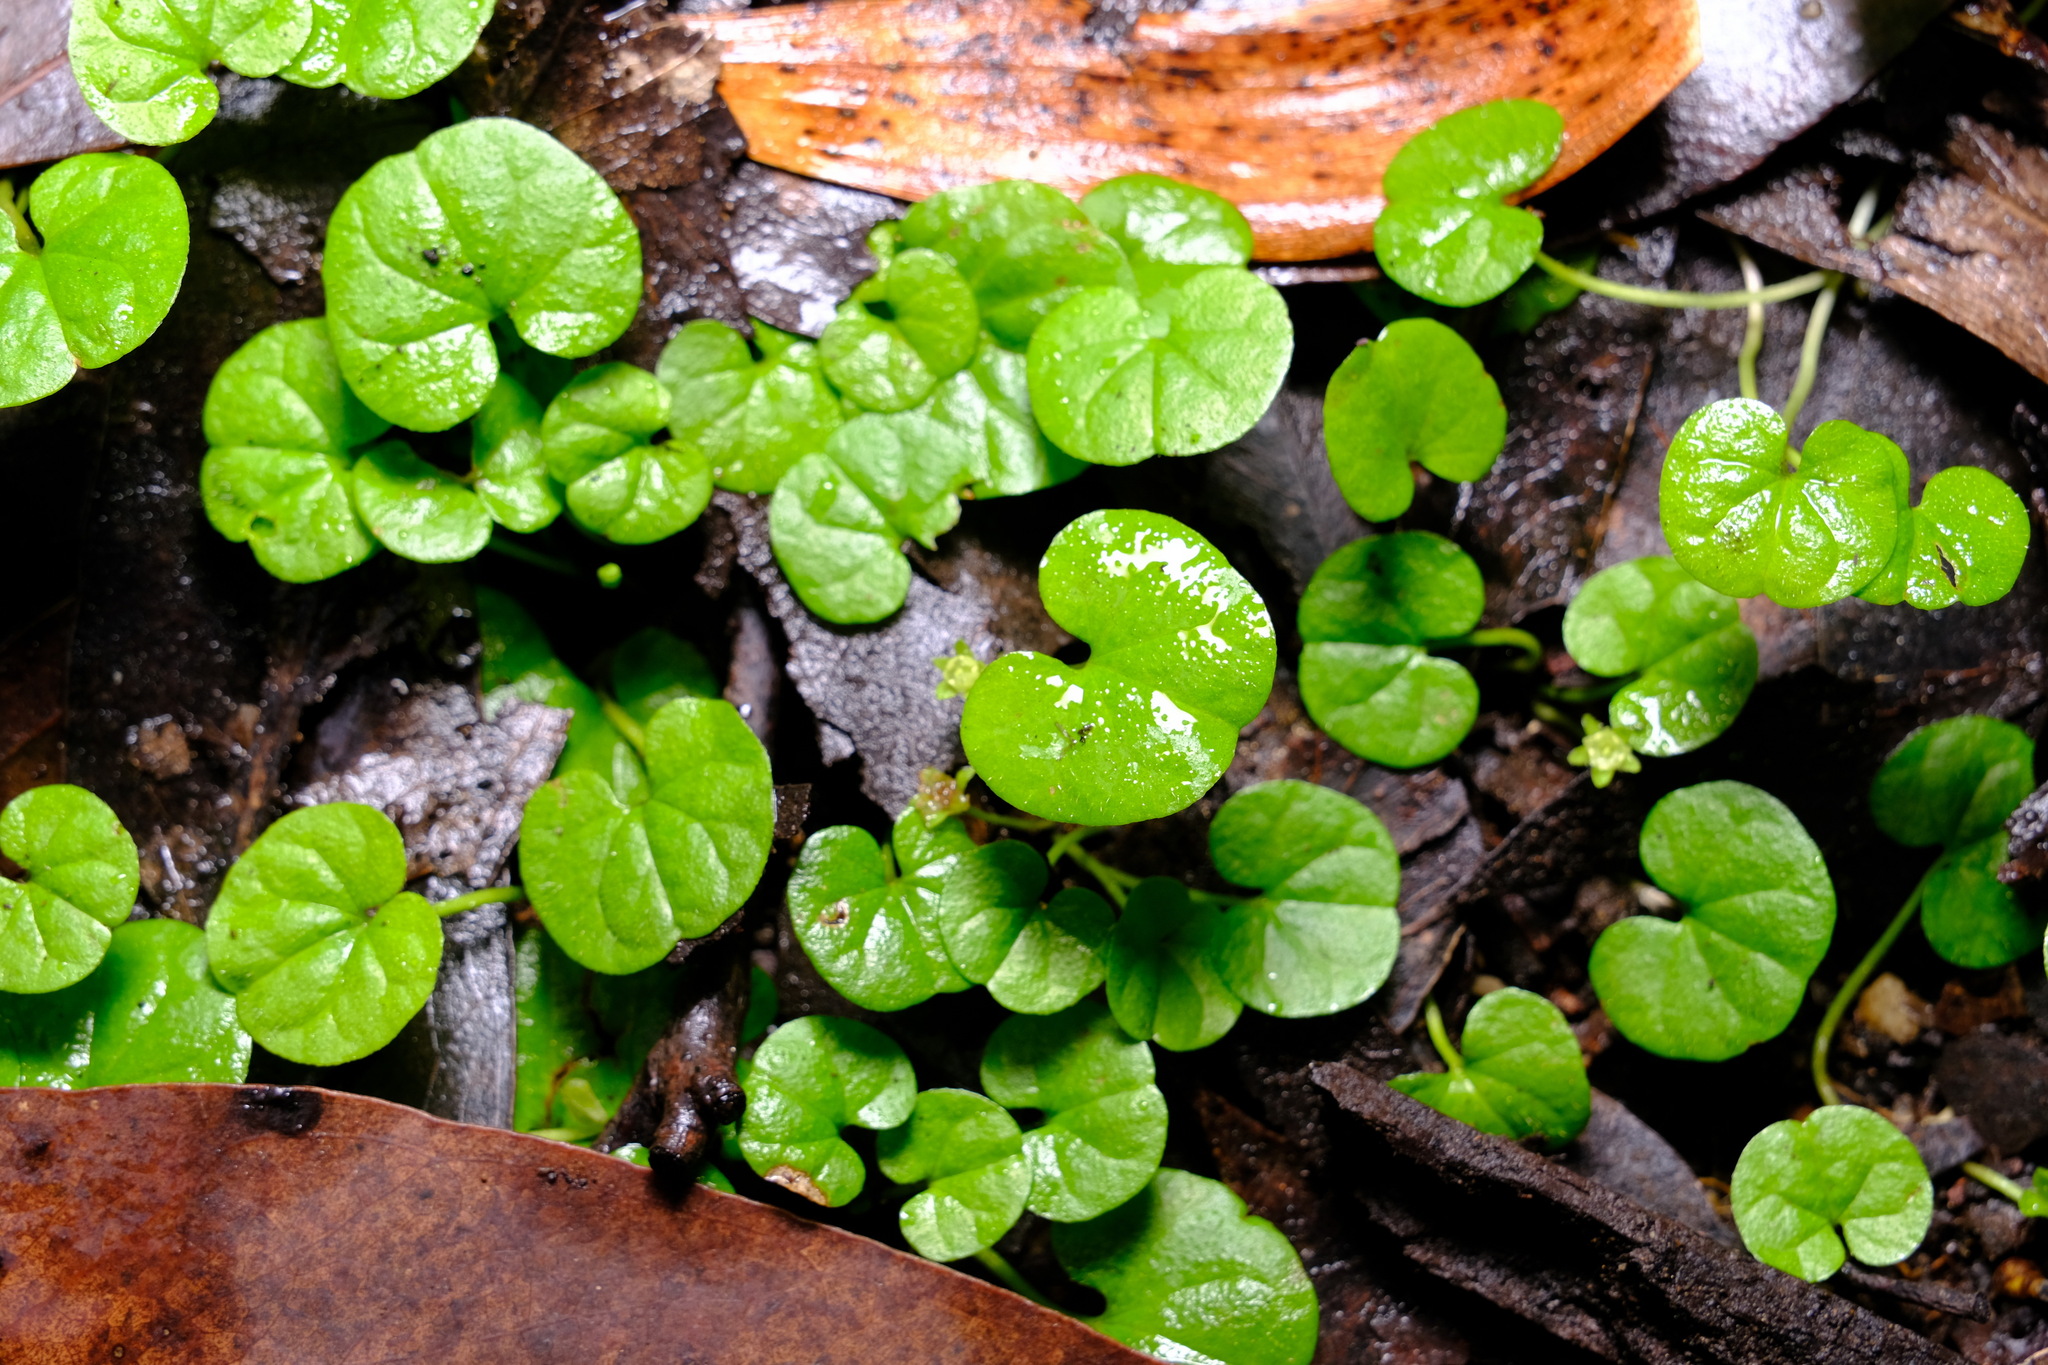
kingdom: Plantae
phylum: Tracheophyta
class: Magnoliopsida
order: Solanales
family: Convolvulaceae
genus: Dichondra
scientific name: Dichondra repens
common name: Kidneyweed
